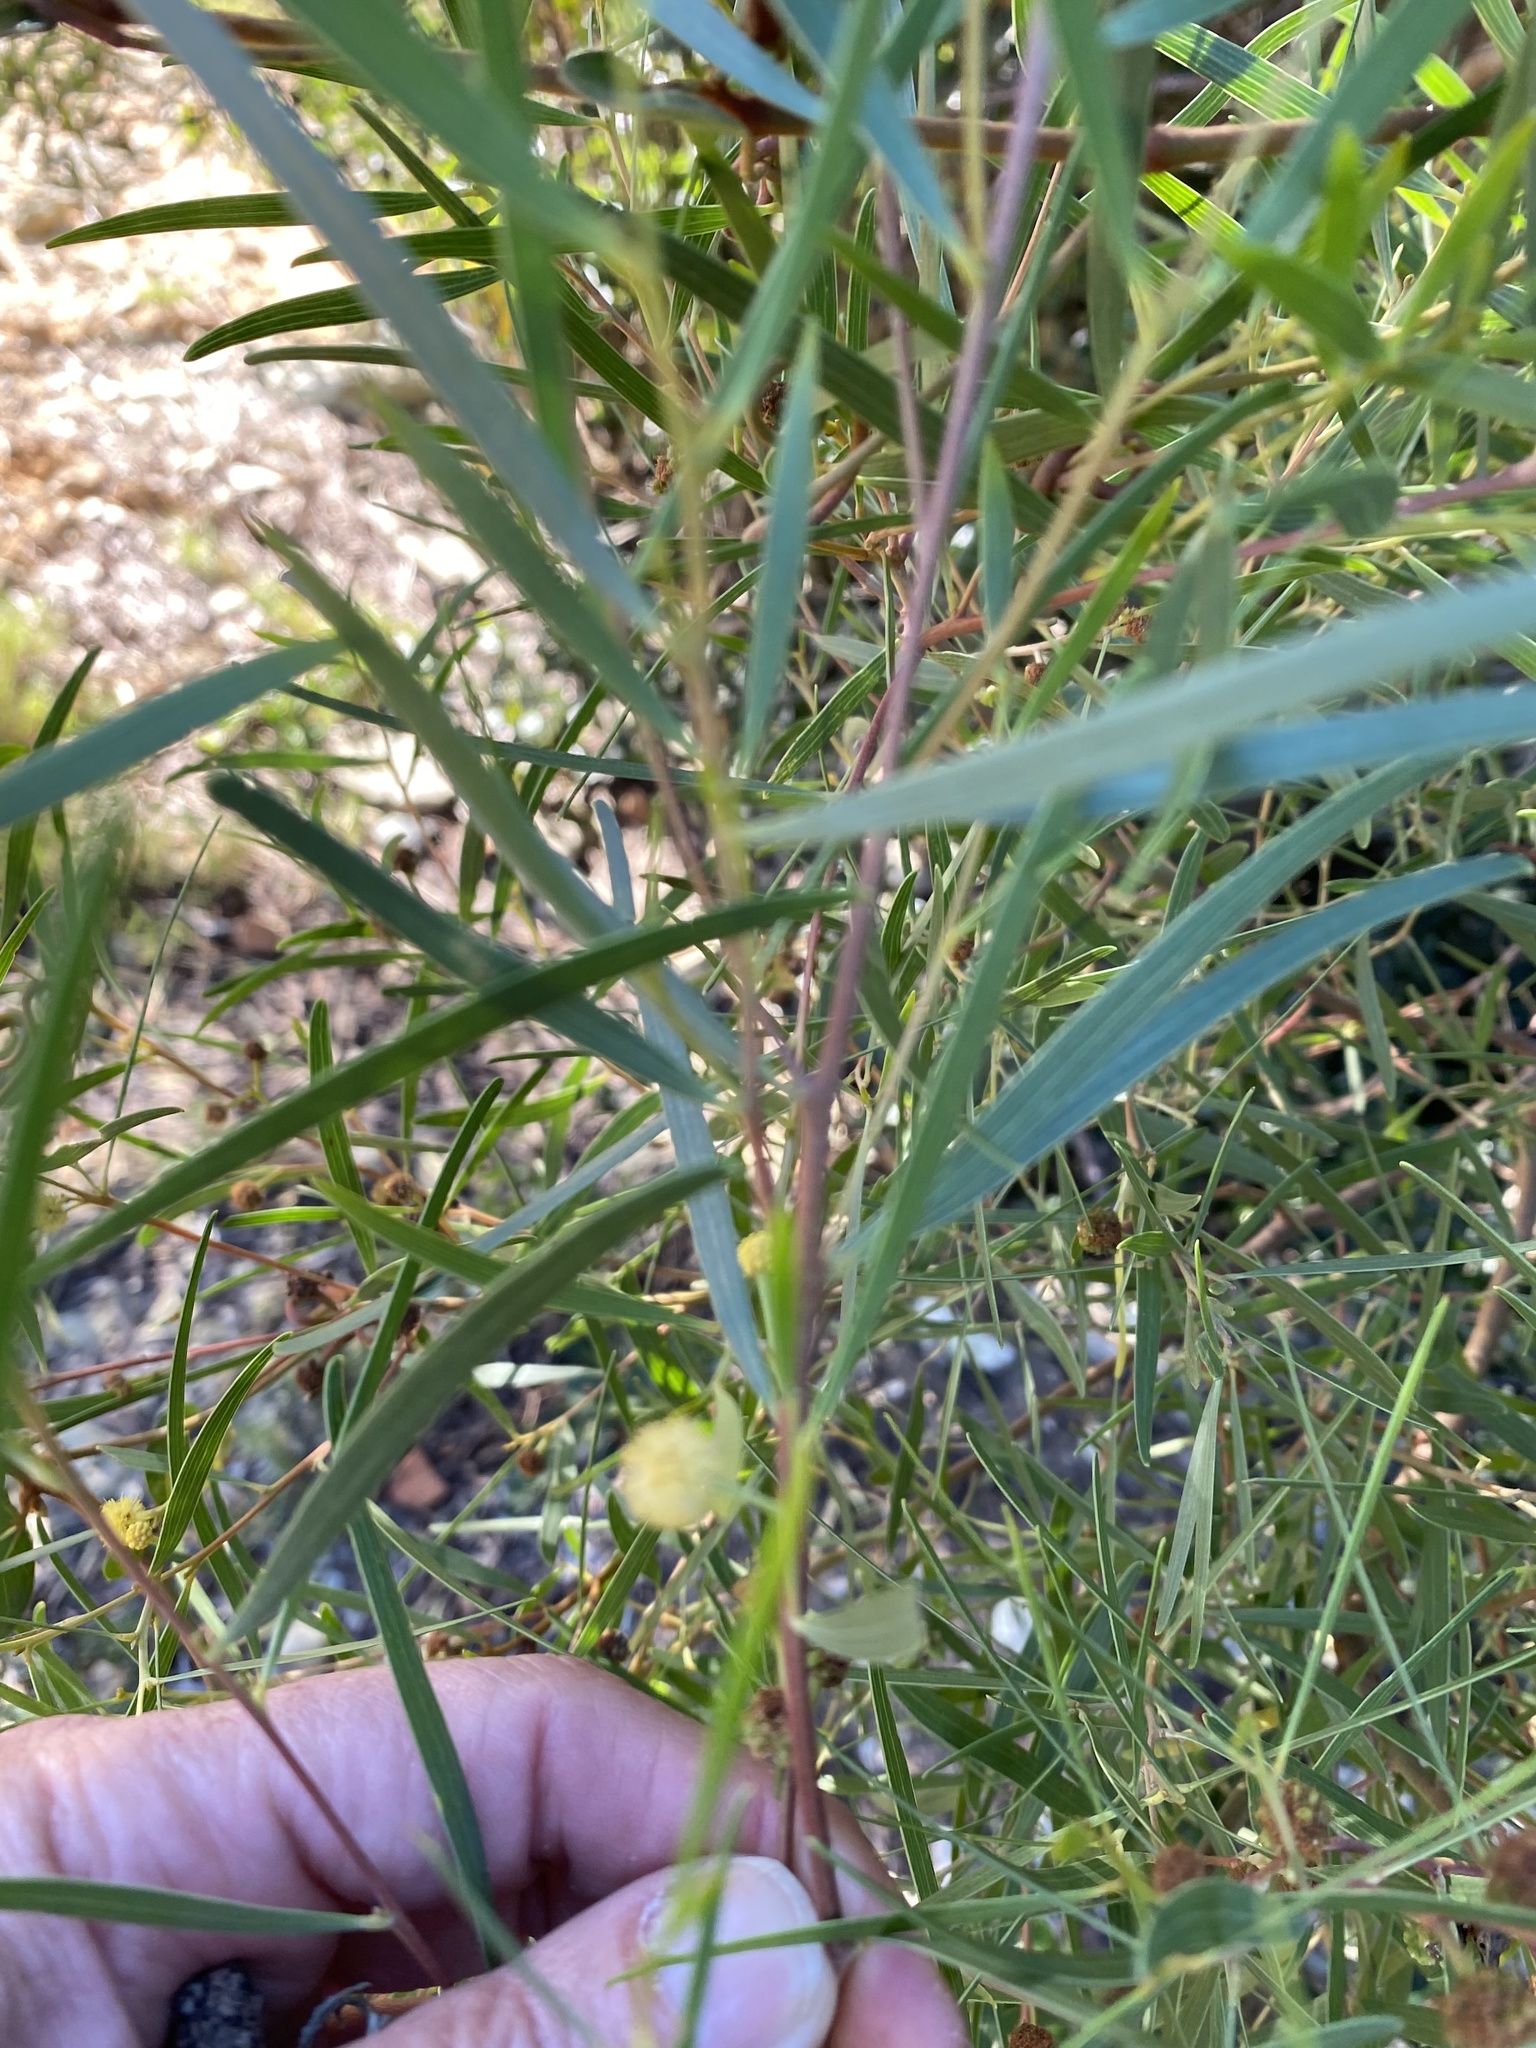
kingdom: Plantae
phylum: Tracheophyta
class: Magnoliopsida
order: Fabales
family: Fabaceae
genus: Acacia
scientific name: Acacia saligna
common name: Orange wattle
